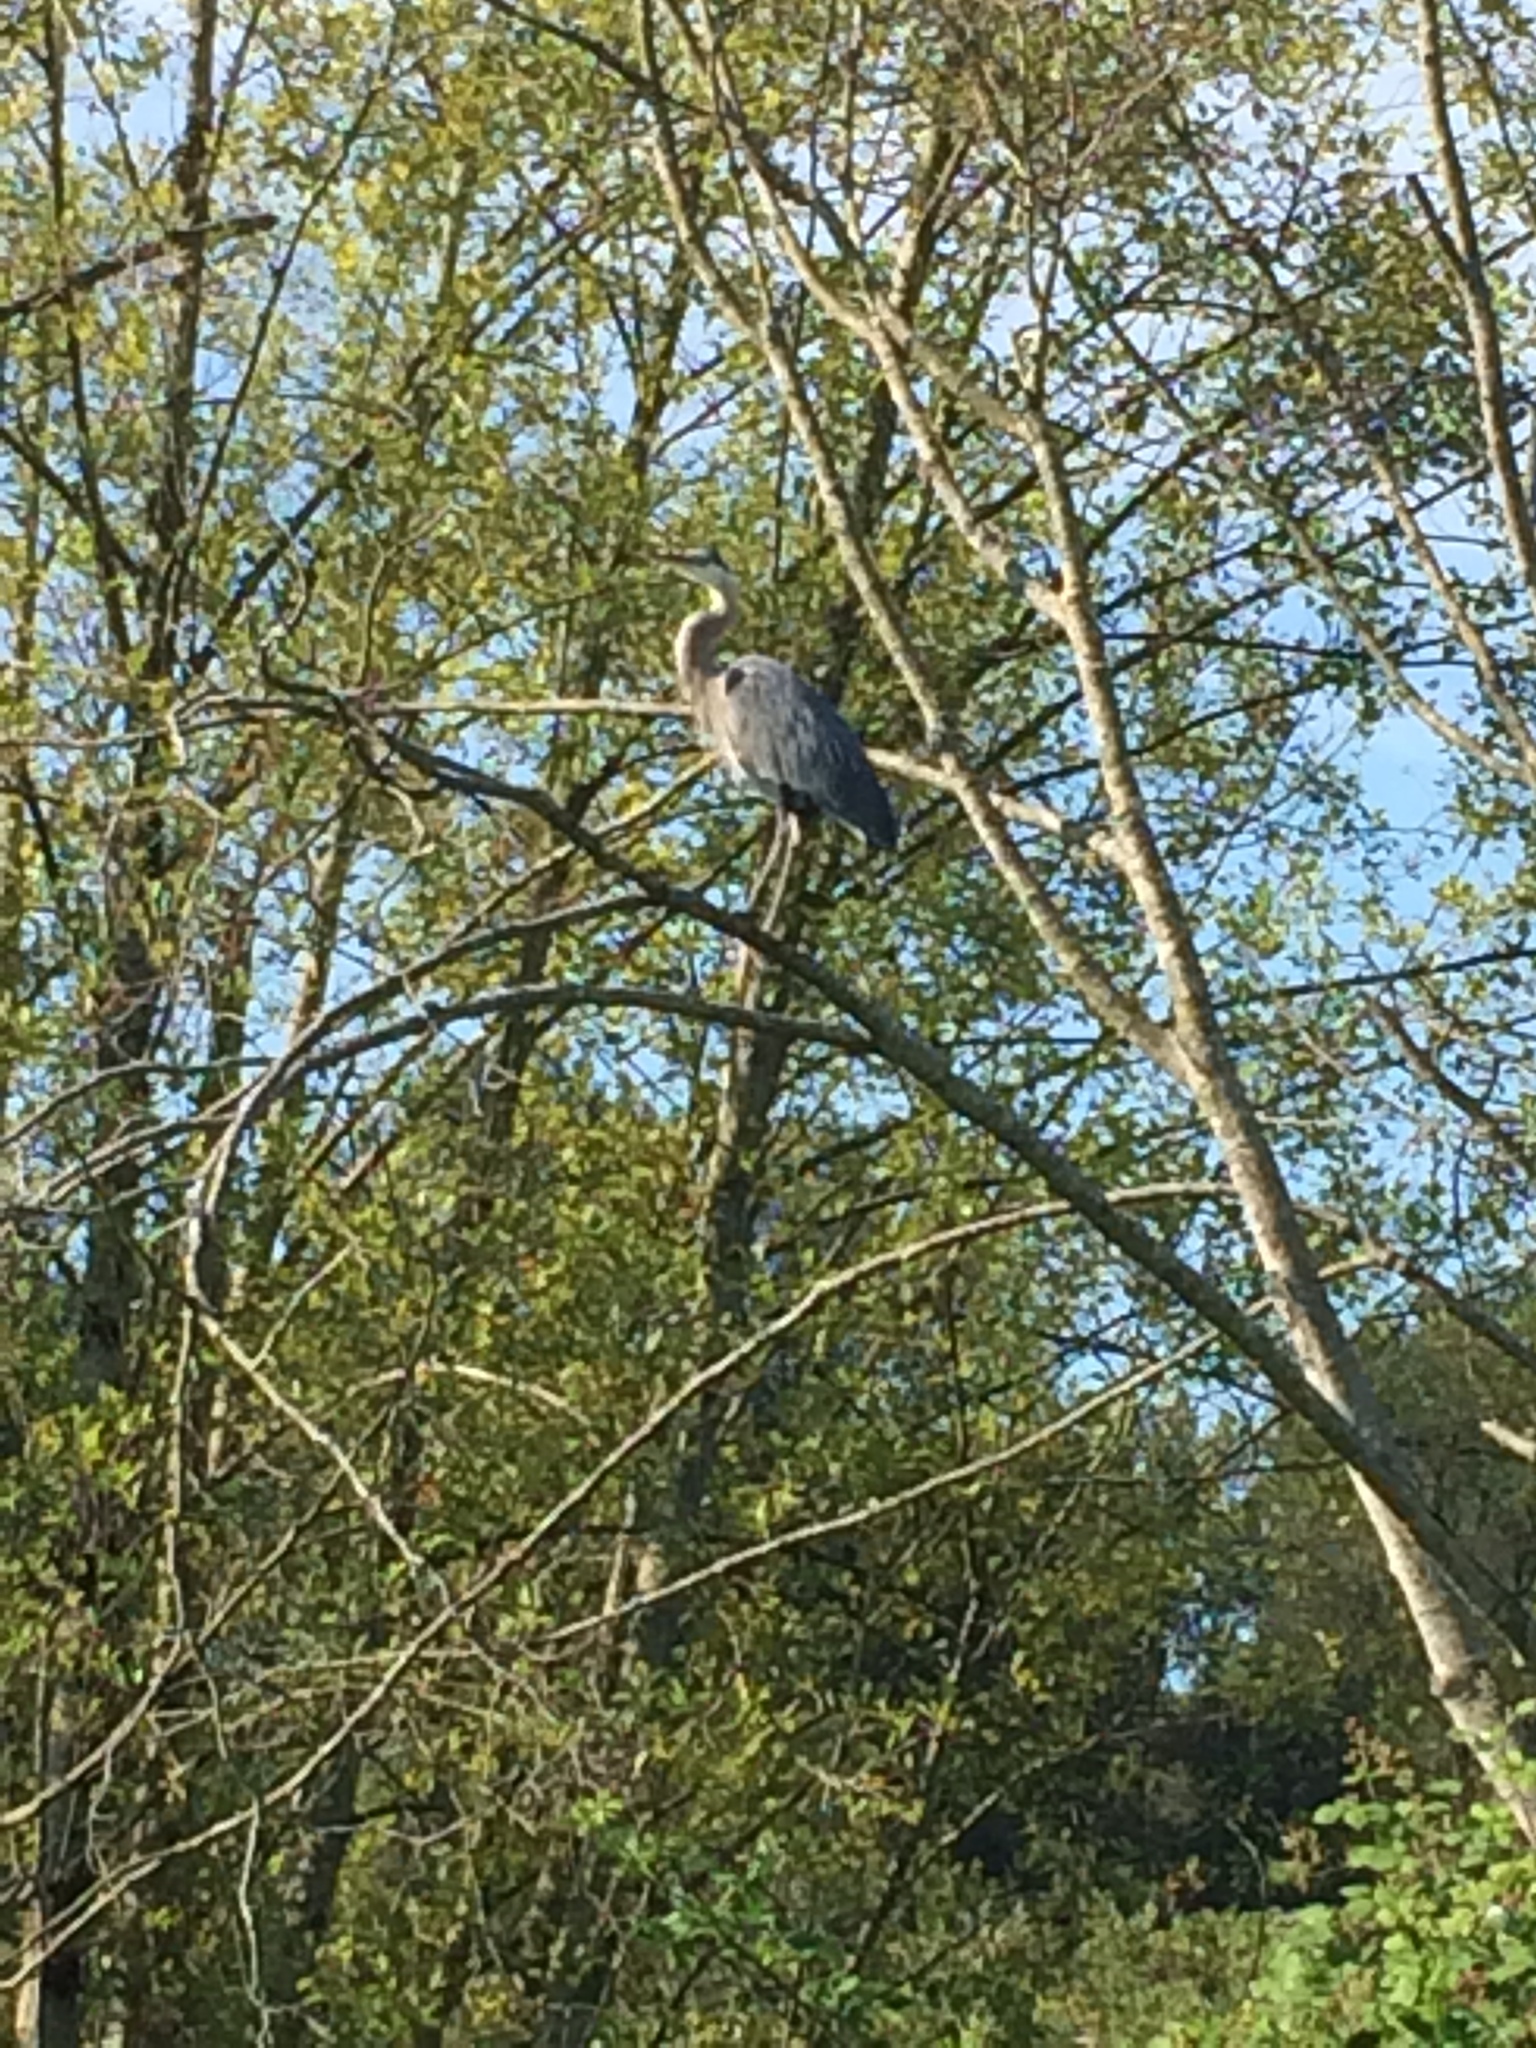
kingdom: Animalia
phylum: Chordata
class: Aves
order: Pelecaniformes
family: Ardeidae
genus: Ardea
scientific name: Ardea herodias
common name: Great blue heron
